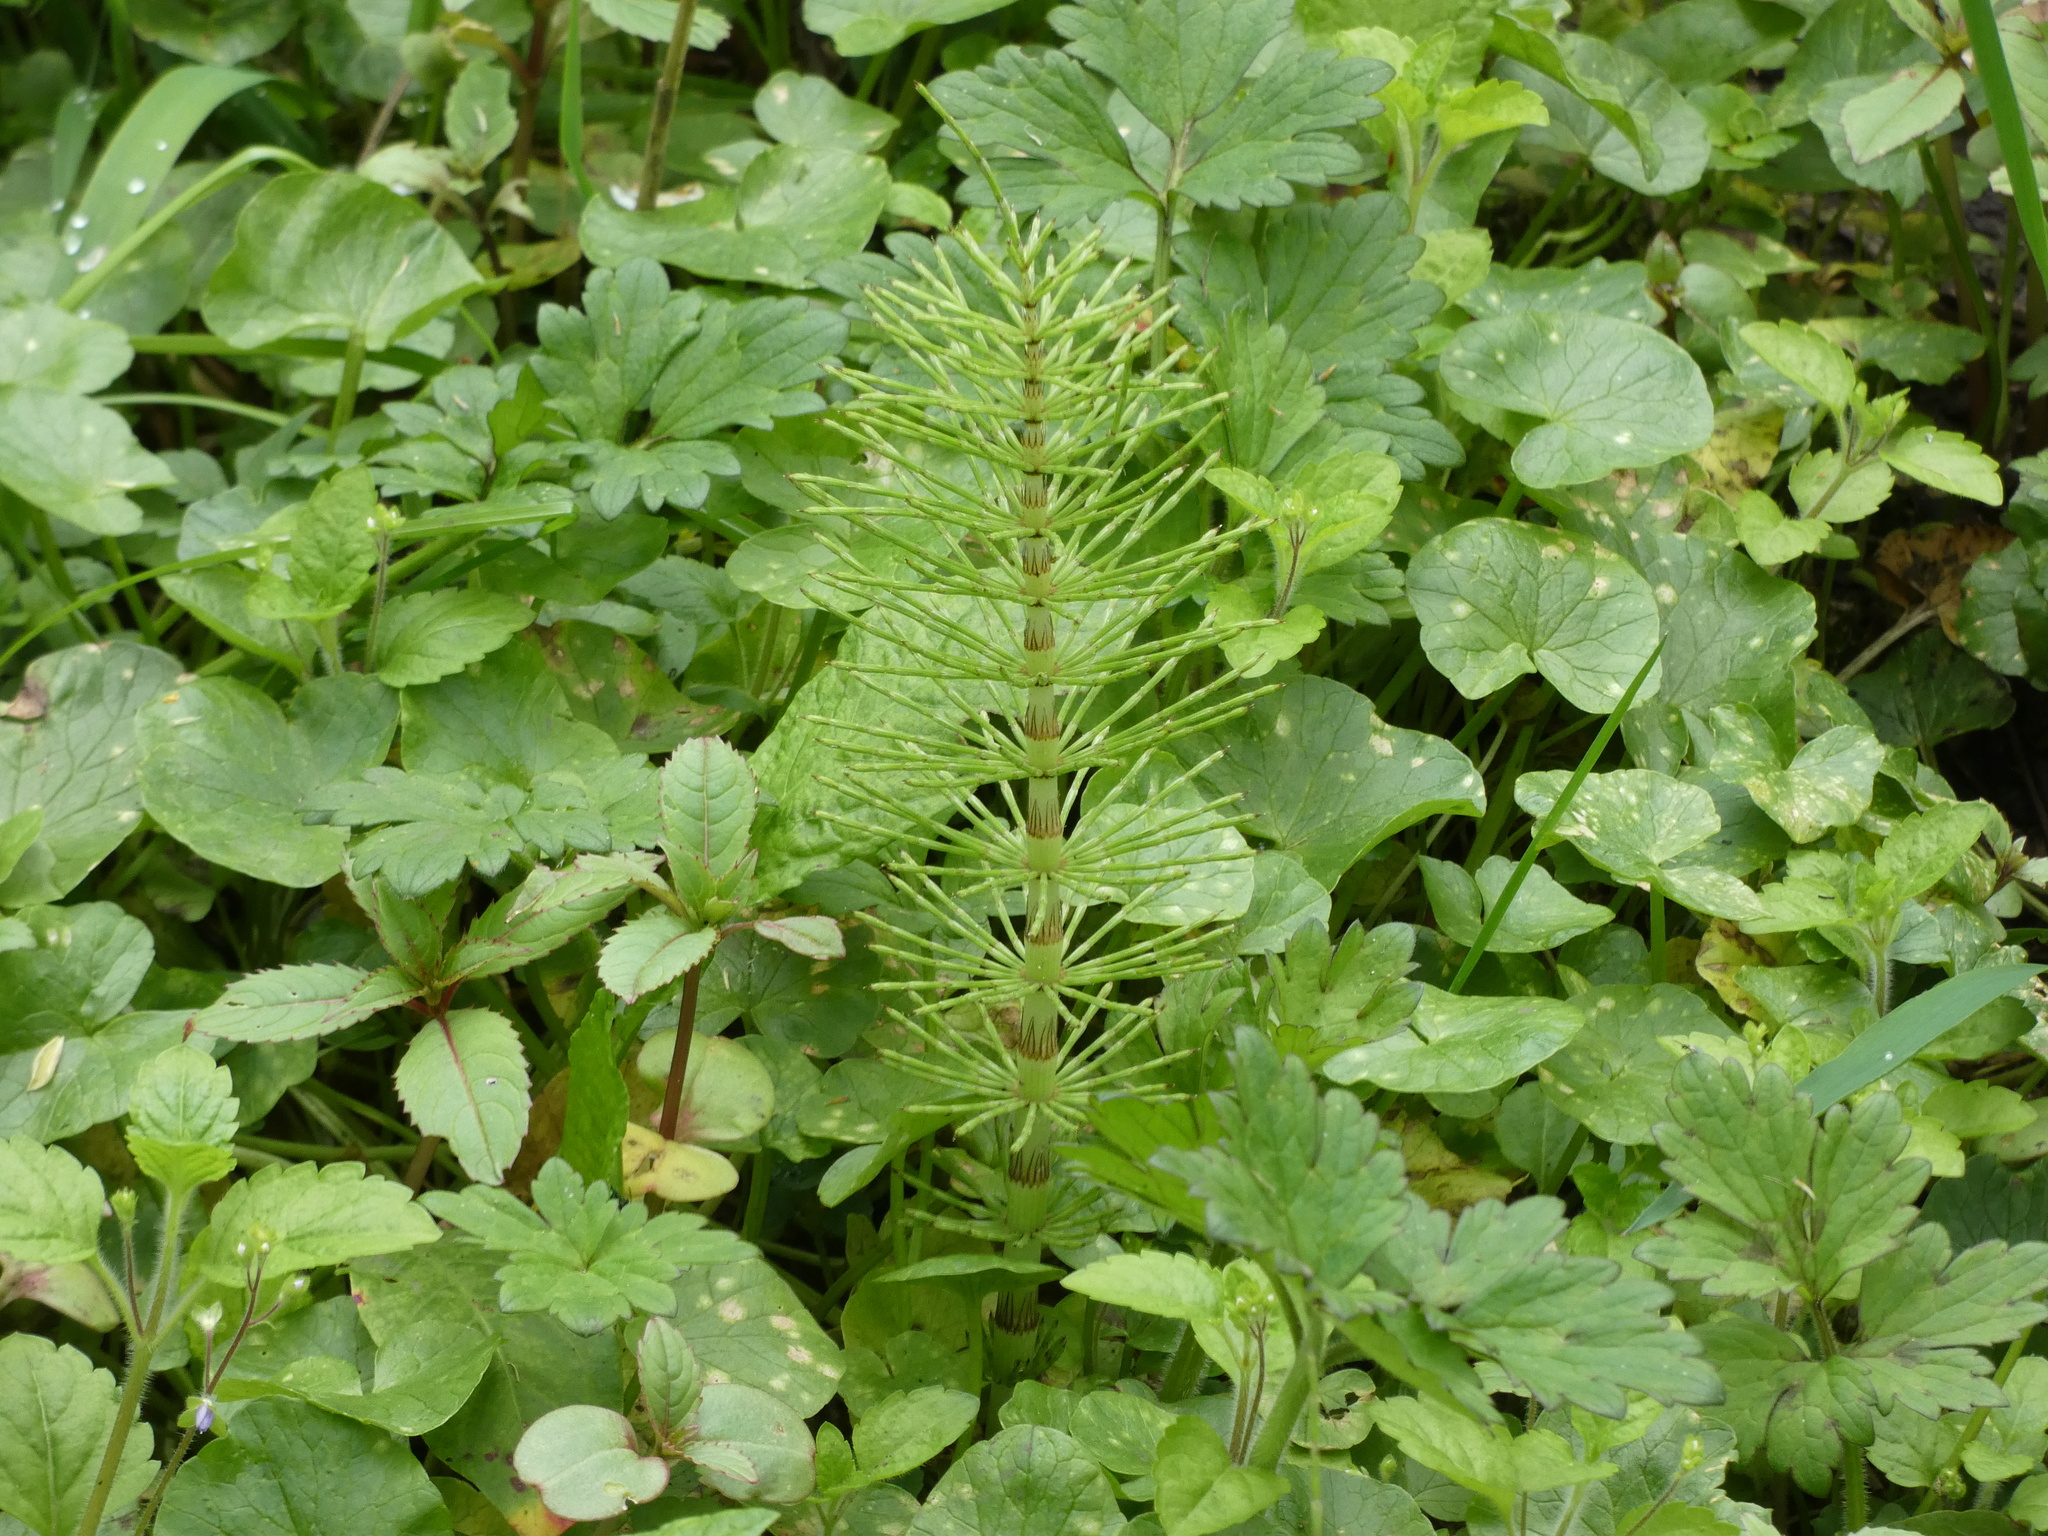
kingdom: Plantae
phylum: Tracheophyta
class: Polypodiopsida
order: Equisetales
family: Equisetaceae
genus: Equisetum
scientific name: Equisetum telmateia
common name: Great horsetail
